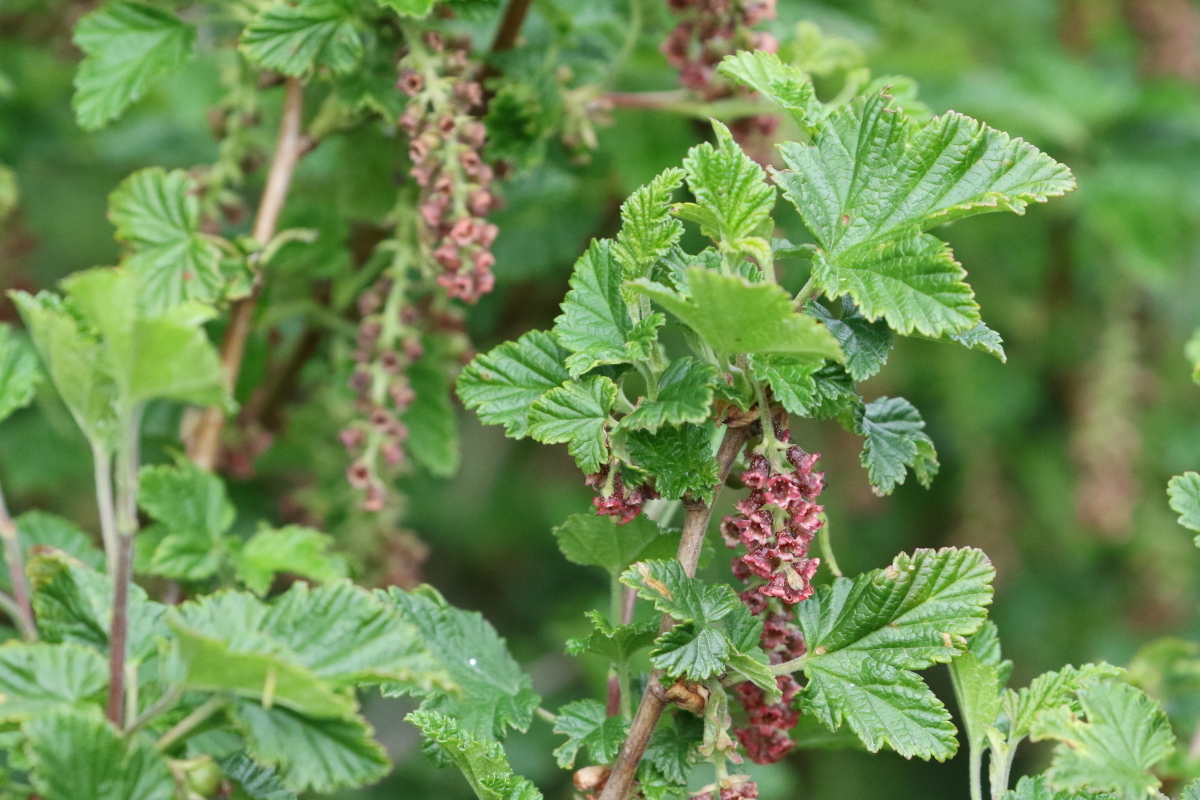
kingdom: Plantae
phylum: Tracheophyta
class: Magnoliopsida
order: Saxifragales
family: Grossulariaceae
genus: Ribes
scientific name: Ribes magellanicum
